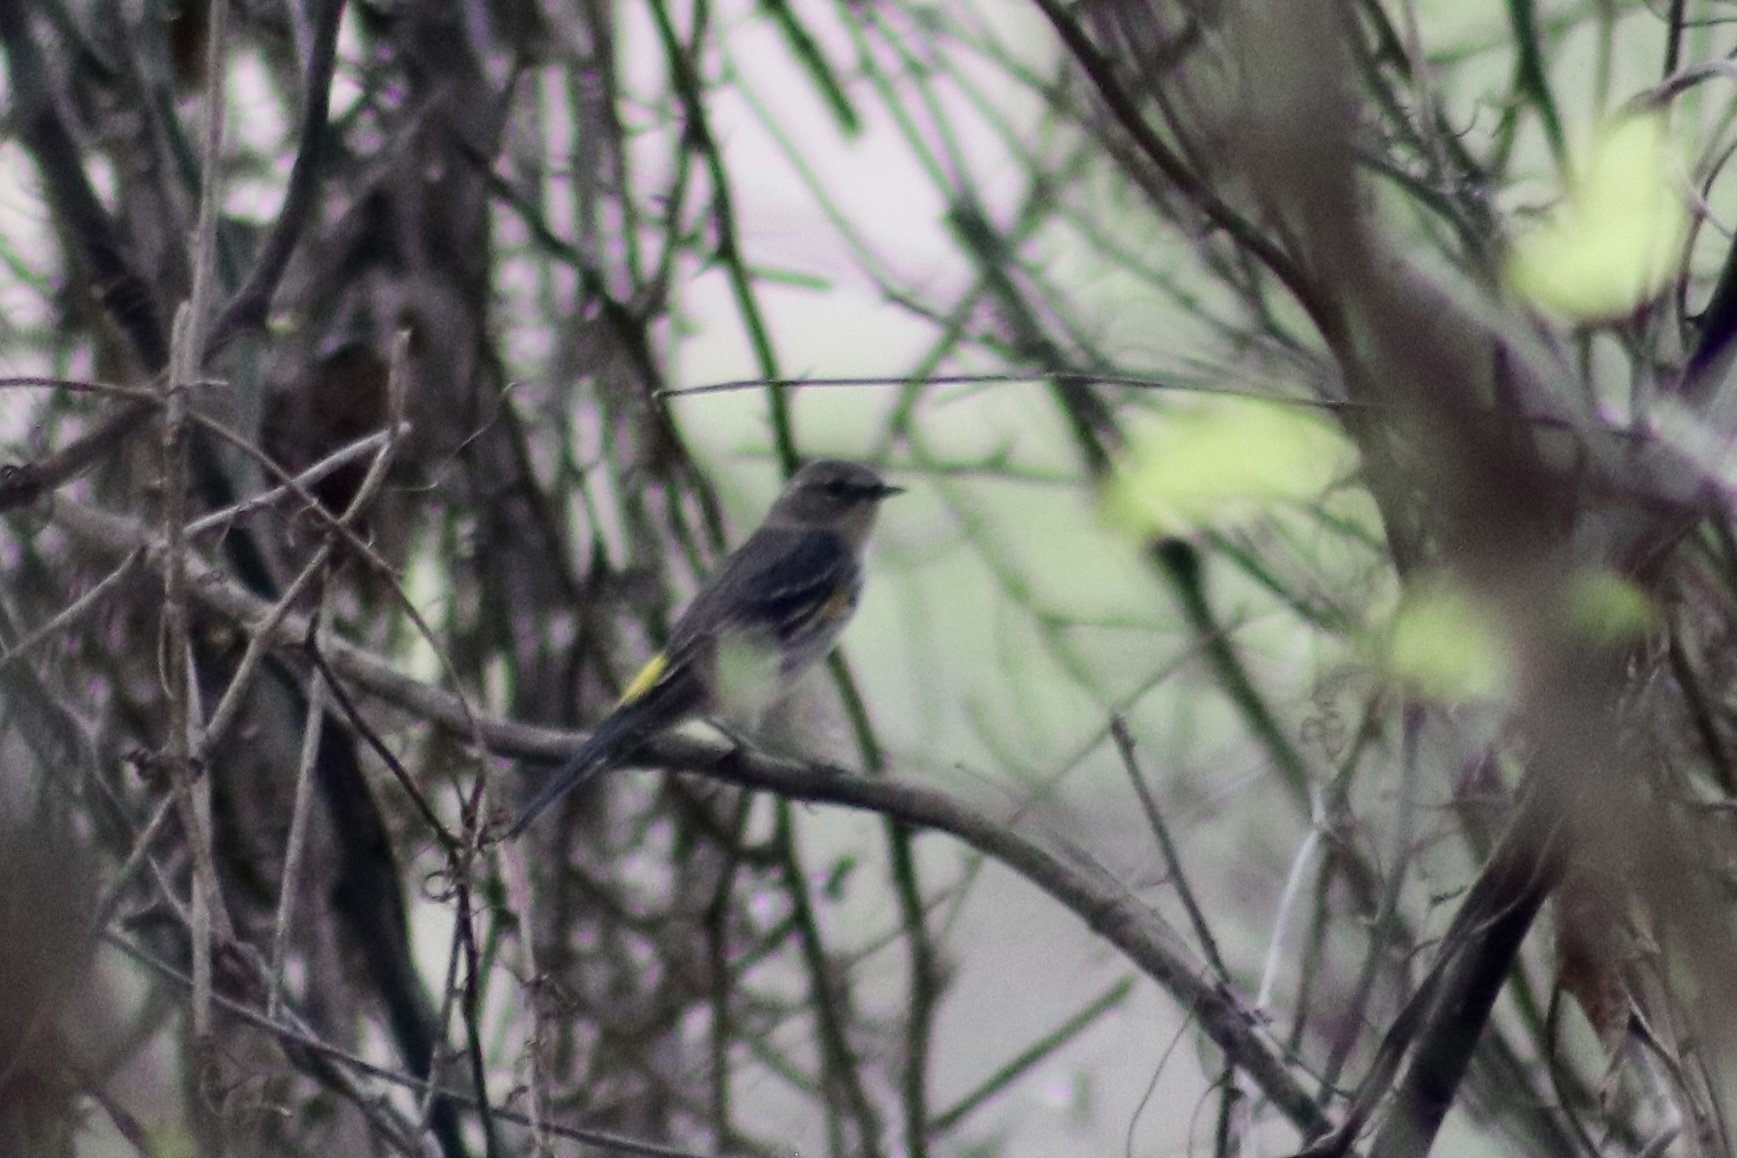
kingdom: Animalia
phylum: Chordata
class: Aves
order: Passeriformes
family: Parulidae
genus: Setophaga
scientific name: Setophaga coronata
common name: Myrtle warbler
